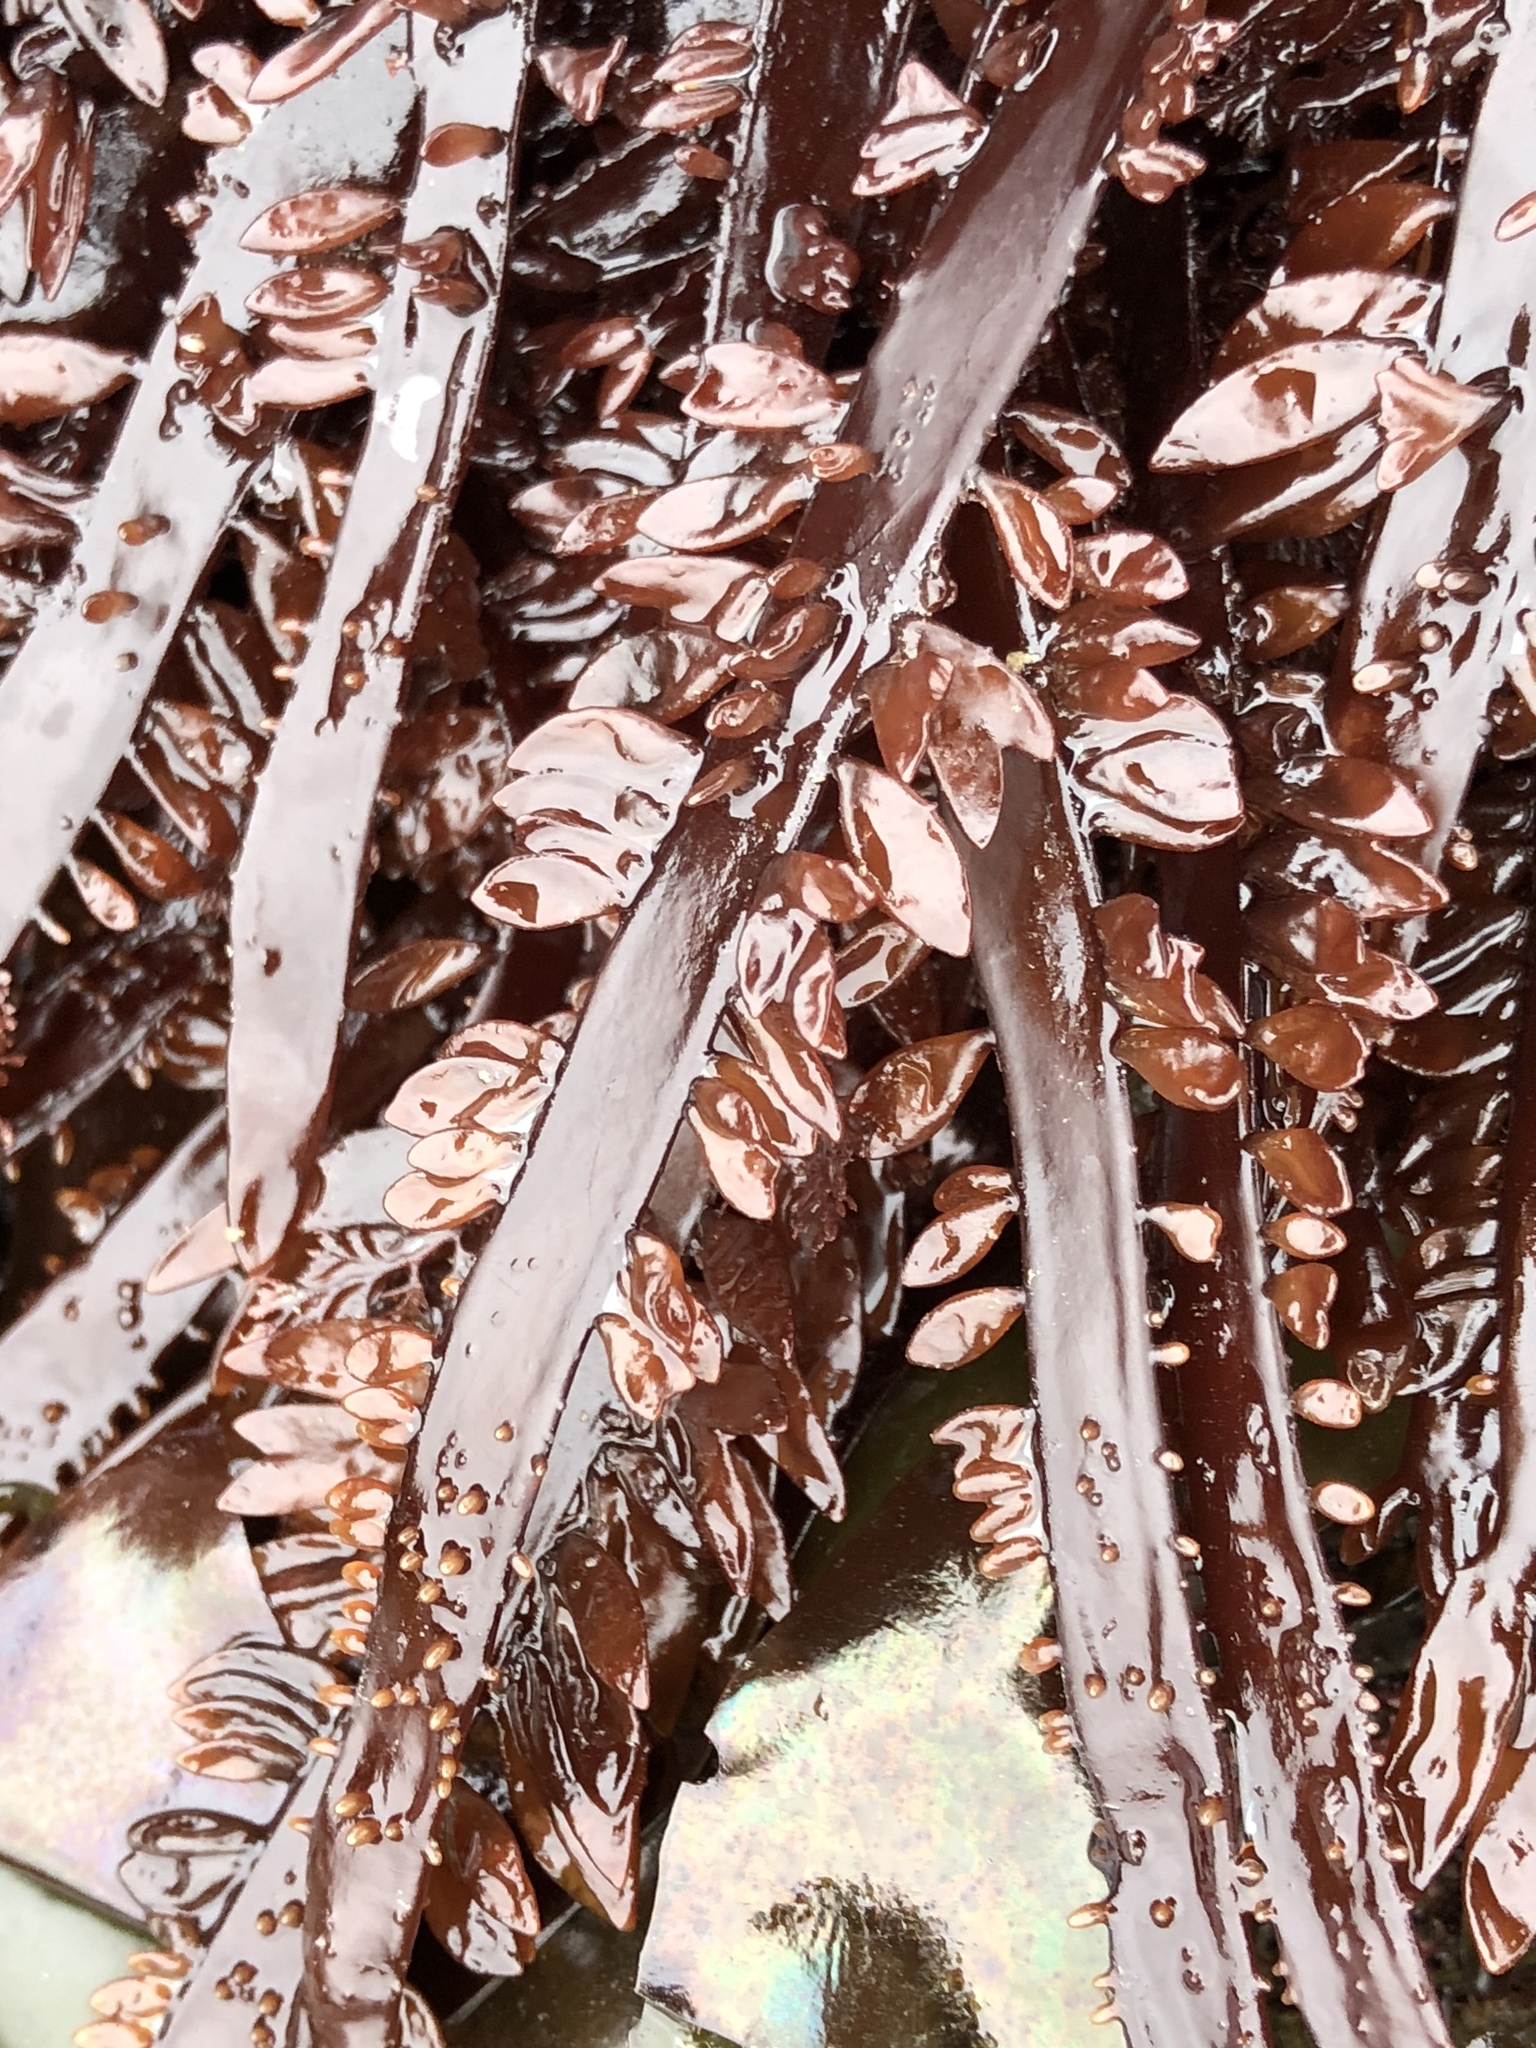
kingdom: Plantae
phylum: Rhodophyta
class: Florideophyceae
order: Halymeniales
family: Halymeniaceae
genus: Grateloupia
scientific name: Grateloupia Prionitis lanceolata
